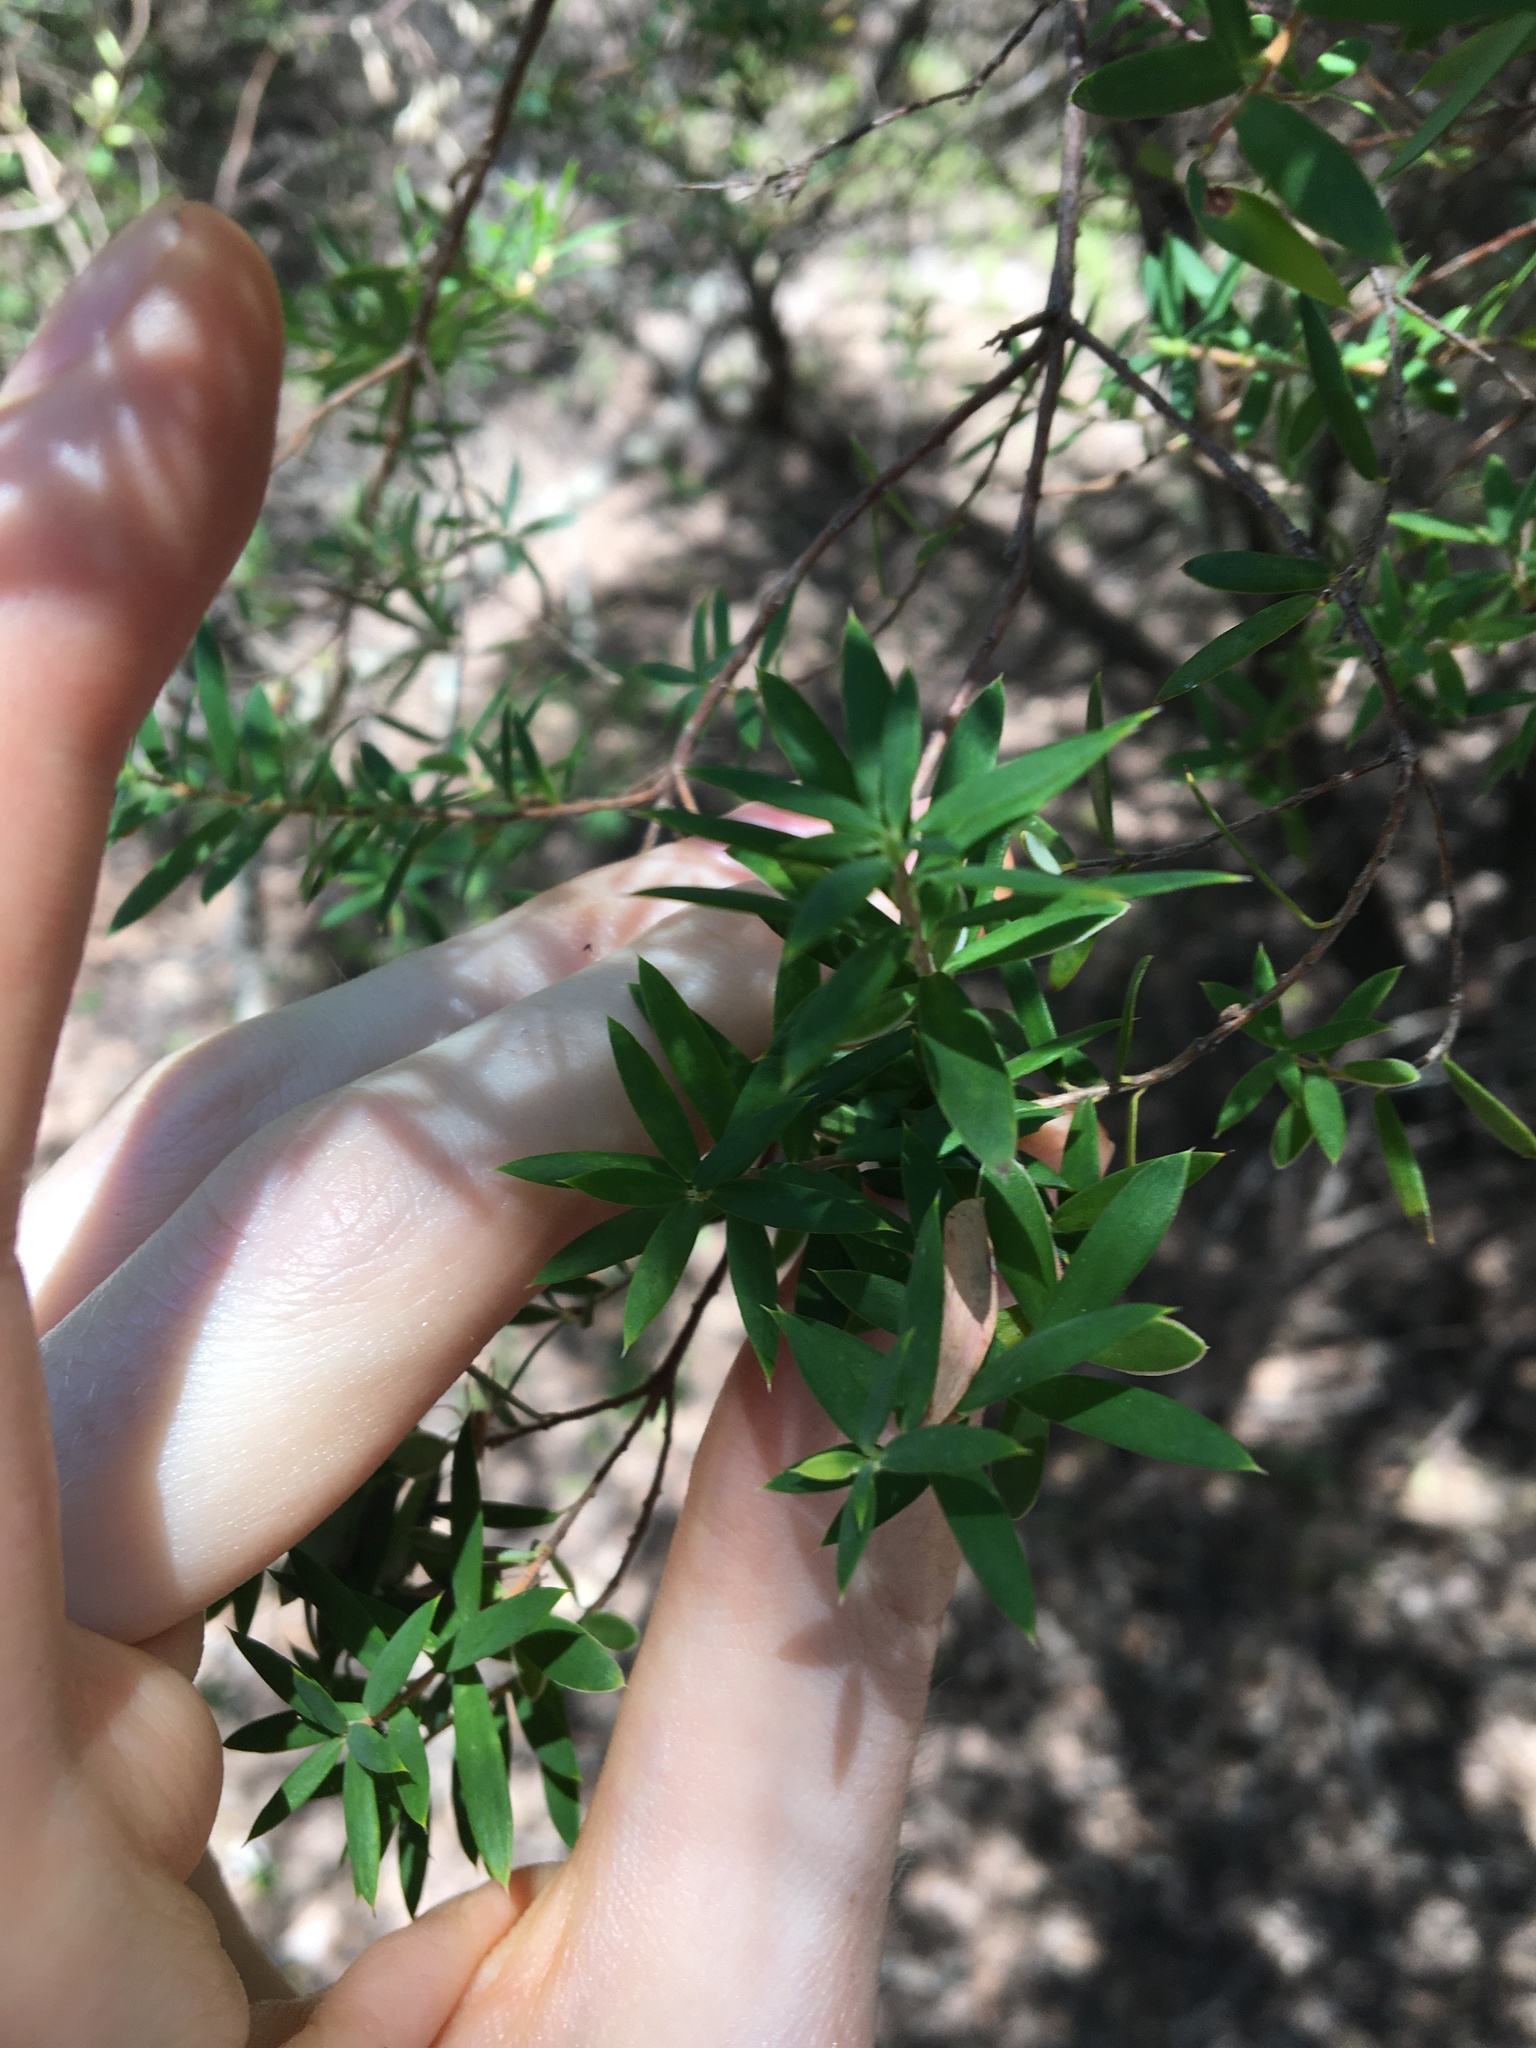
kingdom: Plantae
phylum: Tracheophyta
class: Magnoliopsida
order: Ericales
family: Ericaceae
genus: Monotoca
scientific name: Monotoca elliptica
